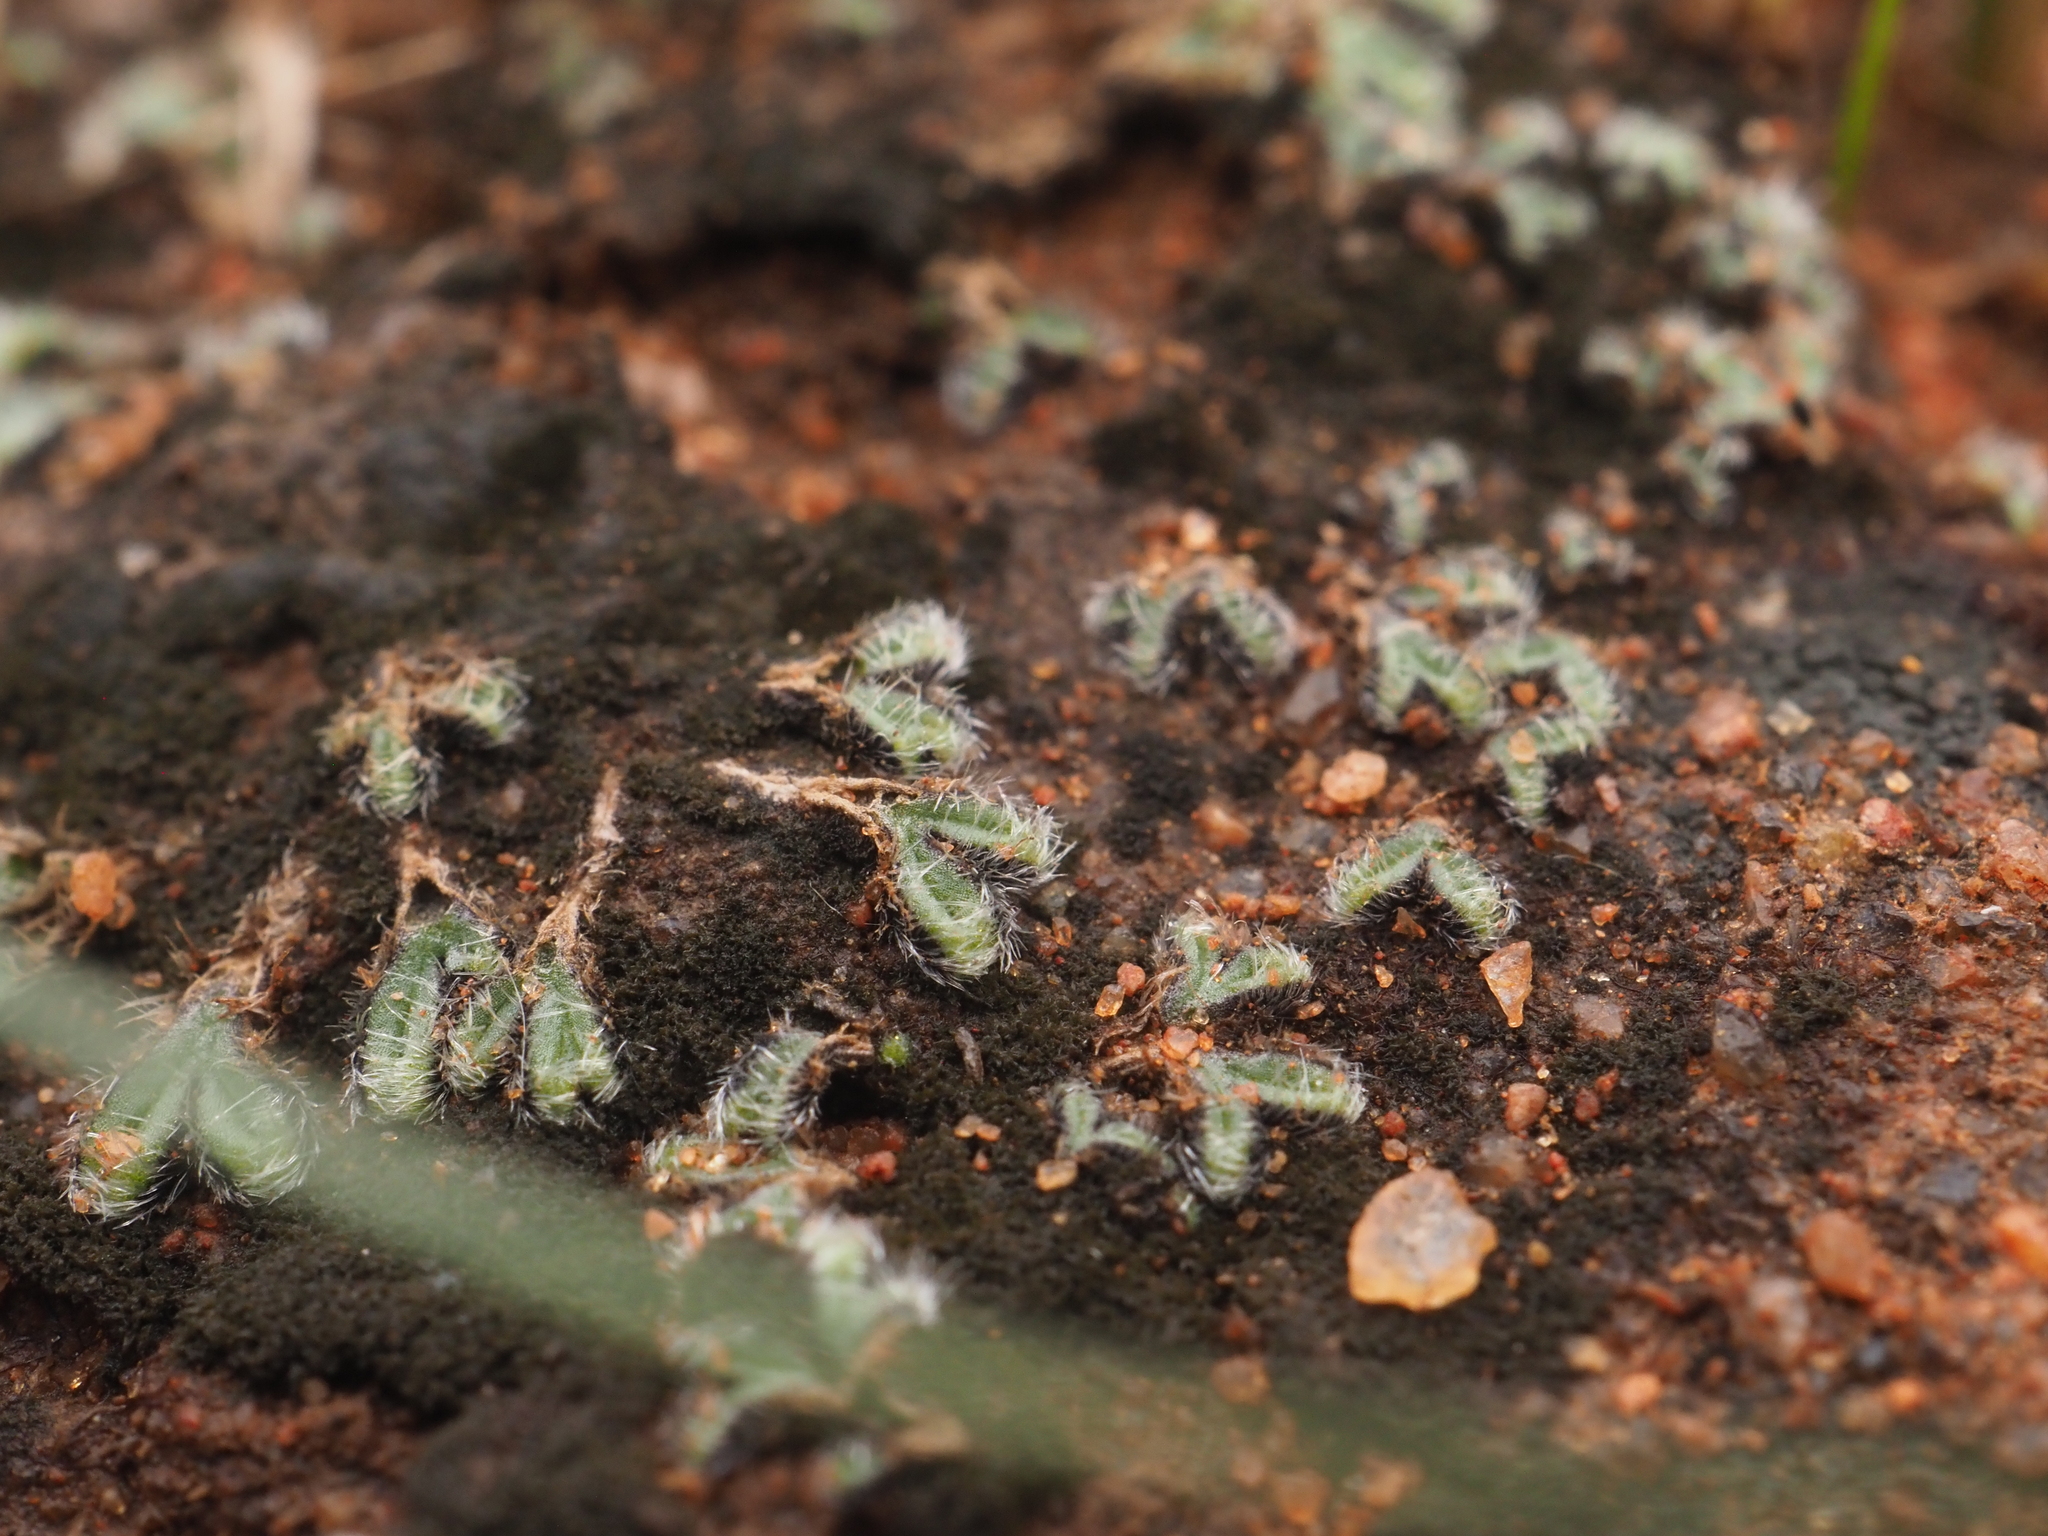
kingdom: Plantae
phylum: Marchantiophyta
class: Marchantiopsida
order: Marchantiales
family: Ricciaceae
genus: Riccia
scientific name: Riccia crinita
